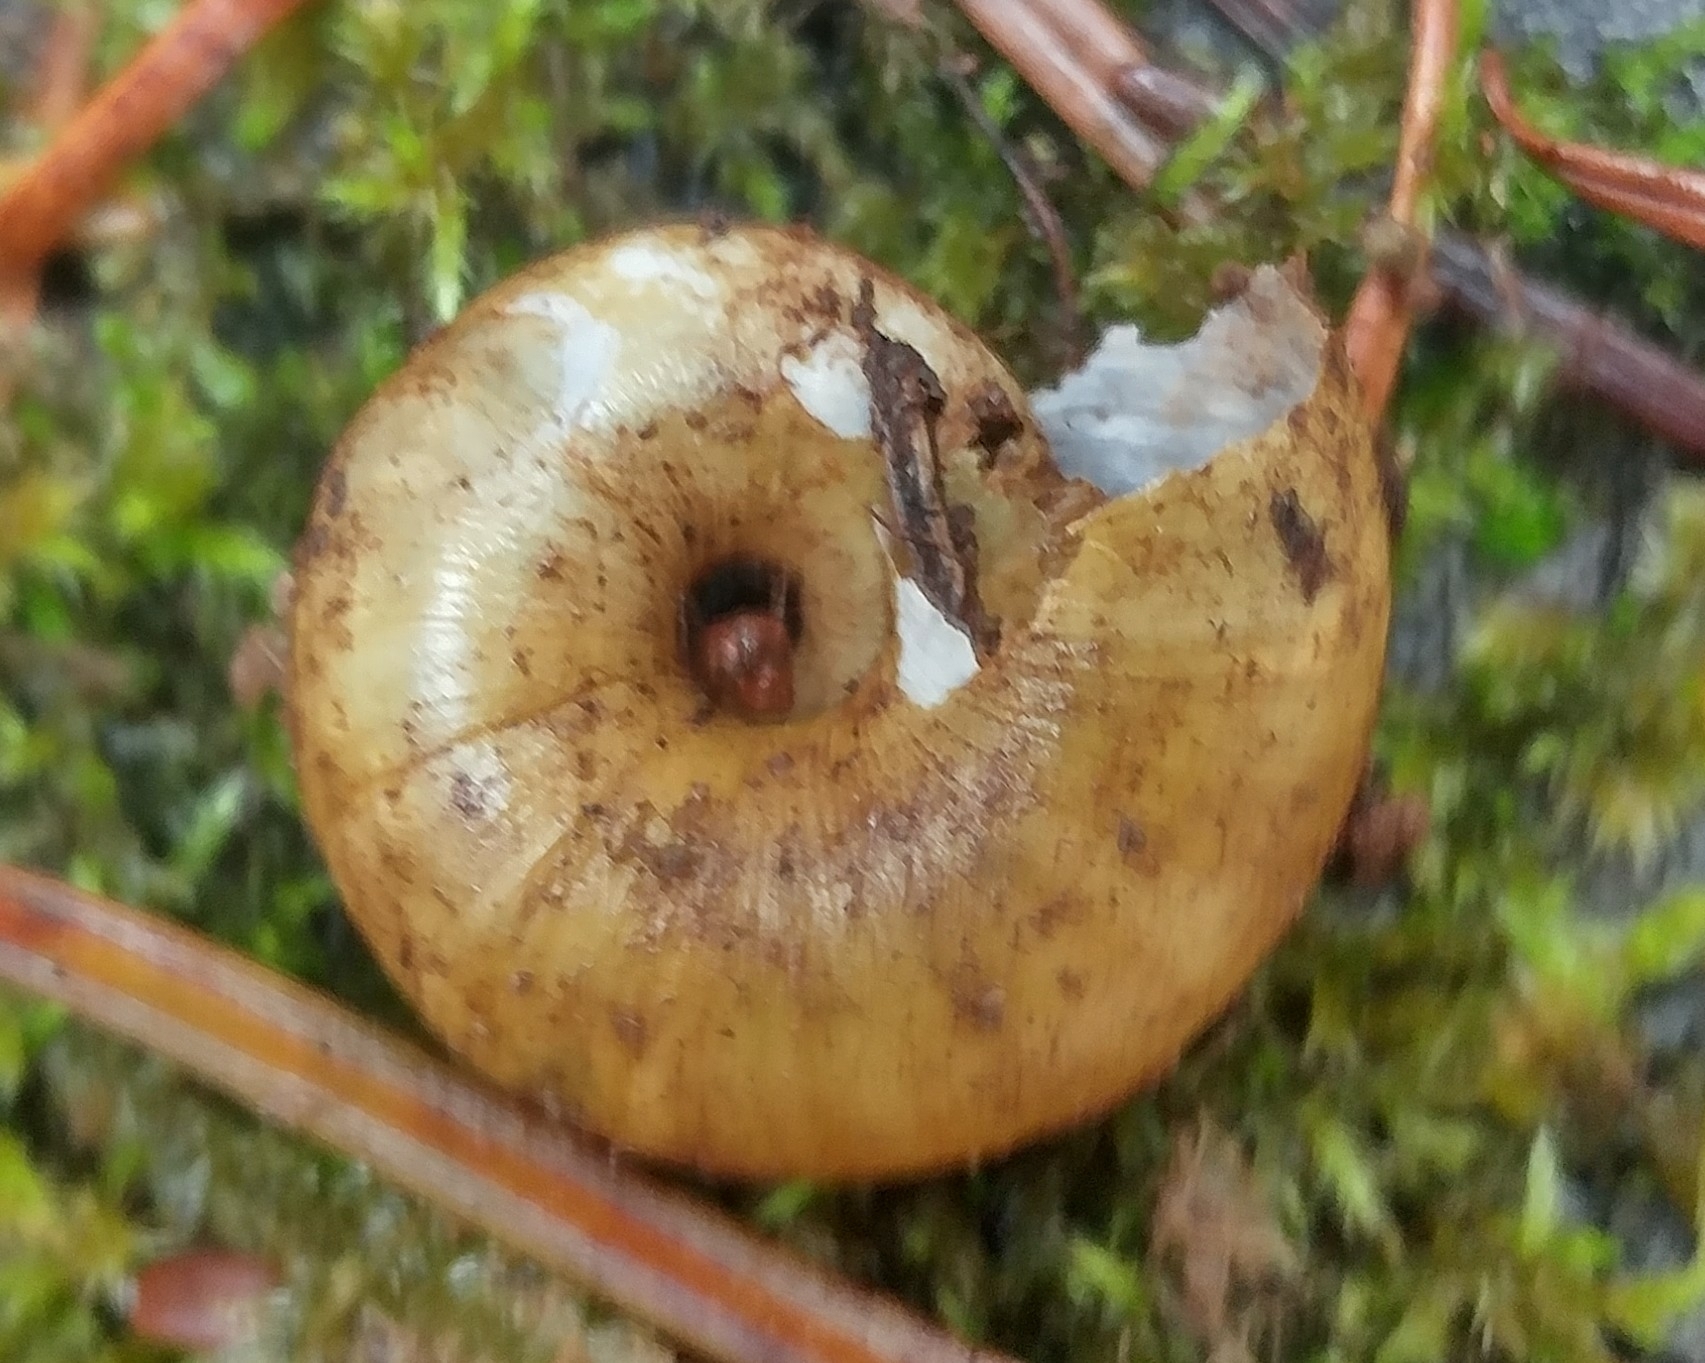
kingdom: Animalia
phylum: Mollusca
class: Gastropoda
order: Stylommatophora
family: Haplotrematidae
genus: Haplotrema
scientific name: Haplotrema vancouverense
